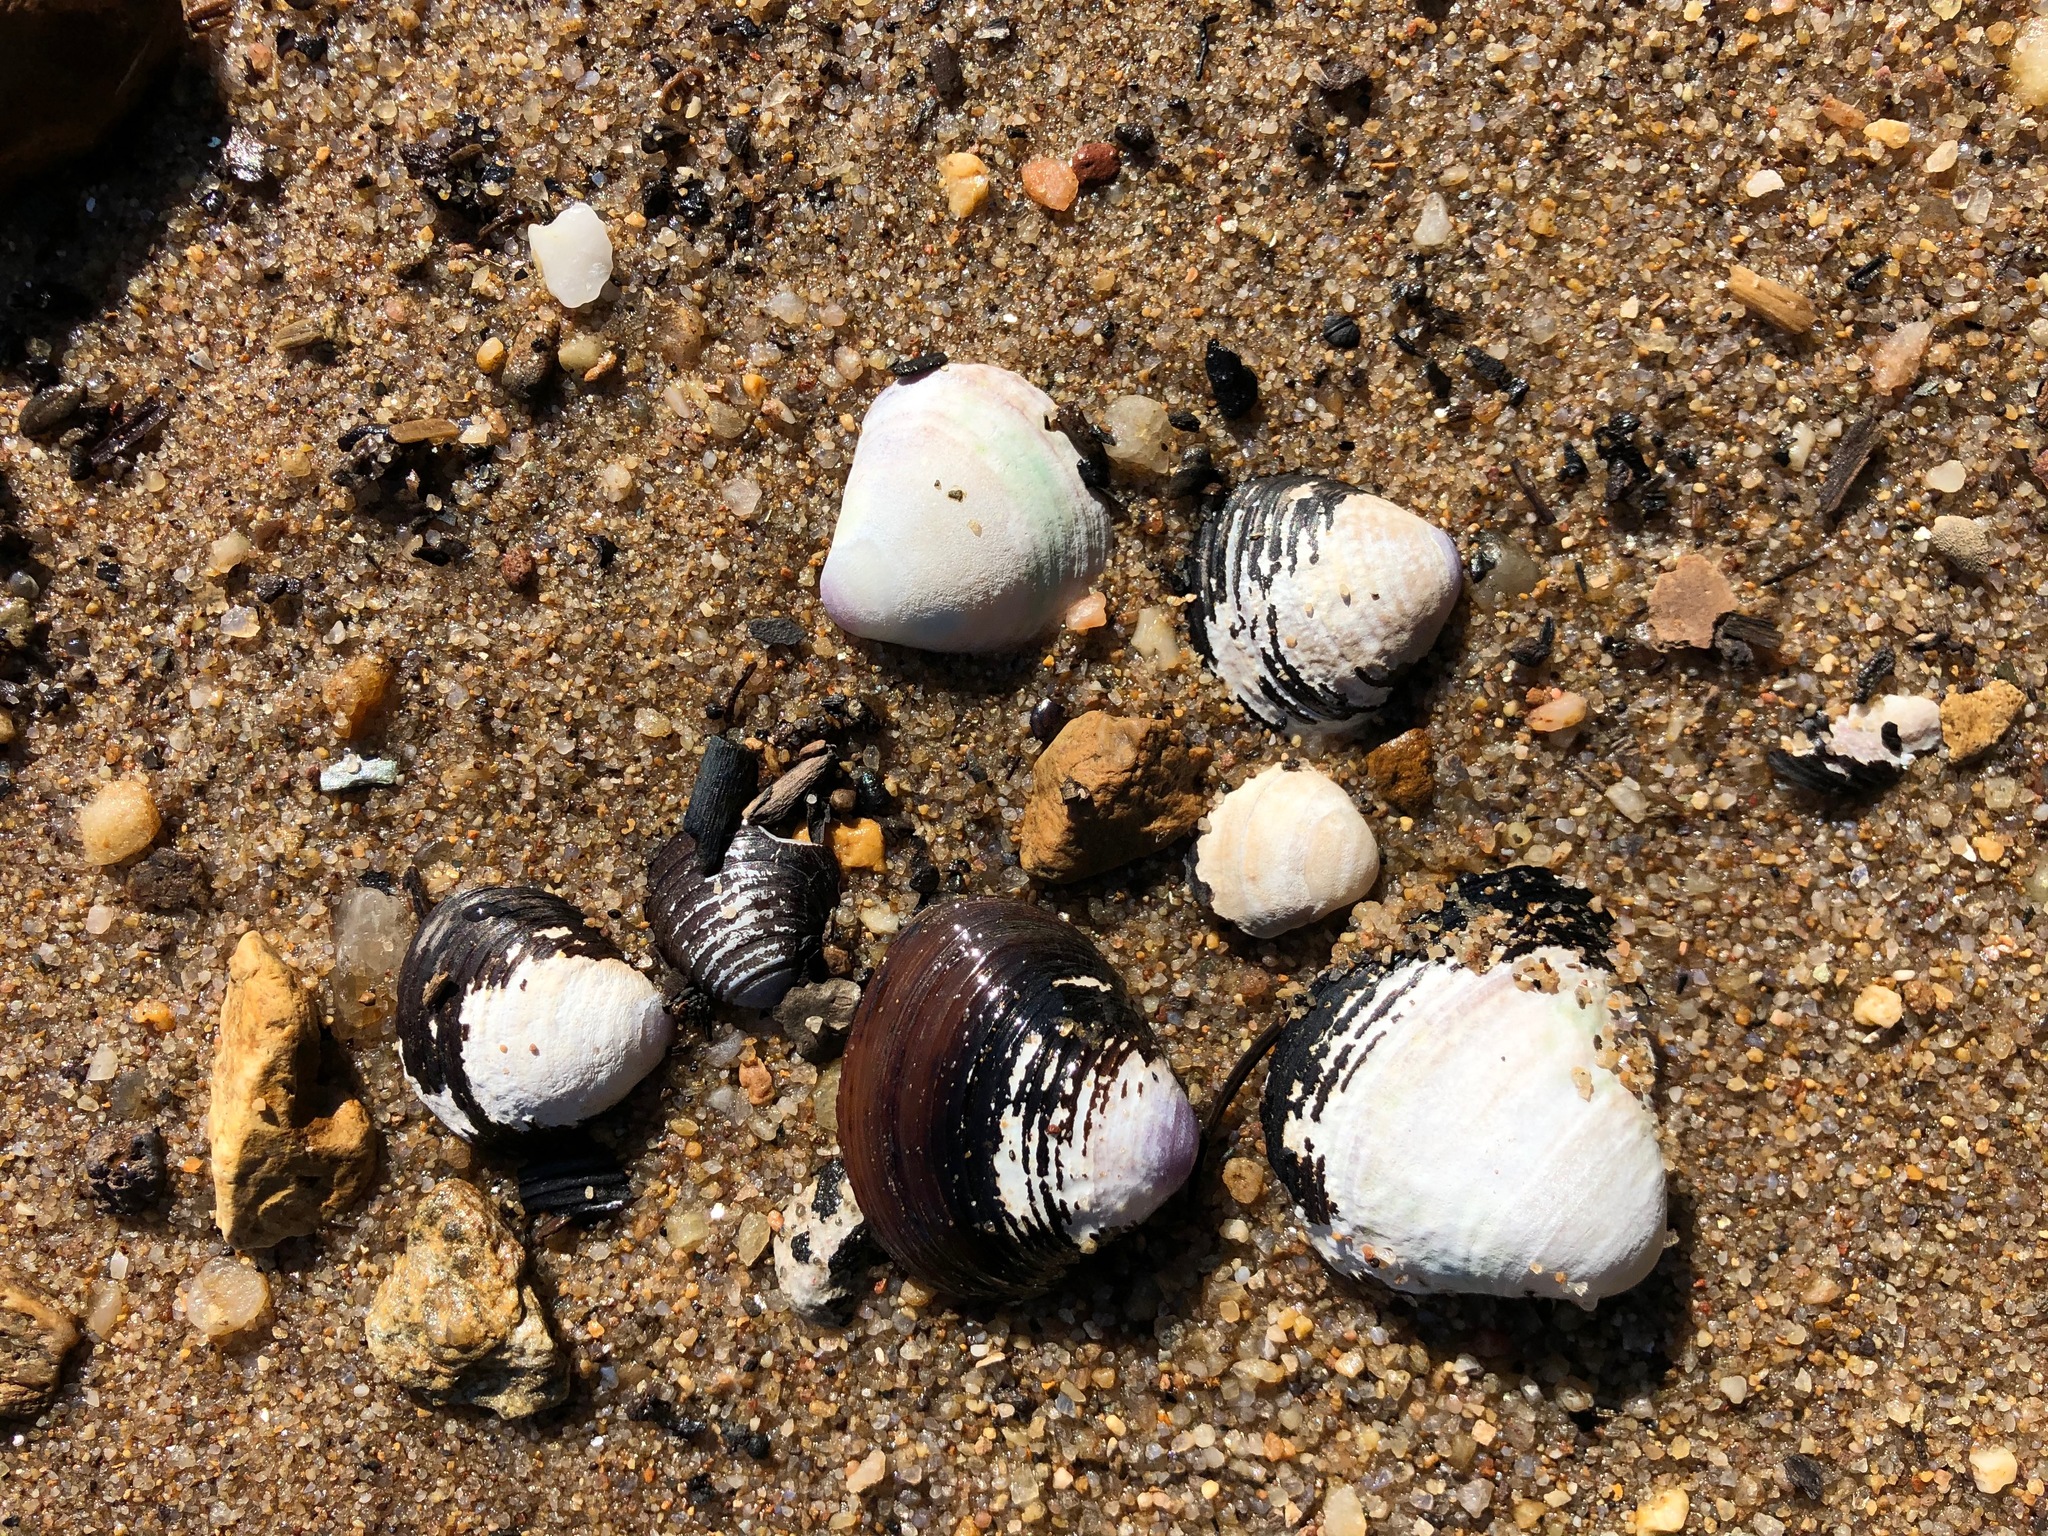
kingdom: Animalia
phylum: Mollusca
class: Bivalvia
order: Venerida
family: Cyrenidae
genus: Corbicula
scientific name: Corbicula fluminea
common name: Asian clam
